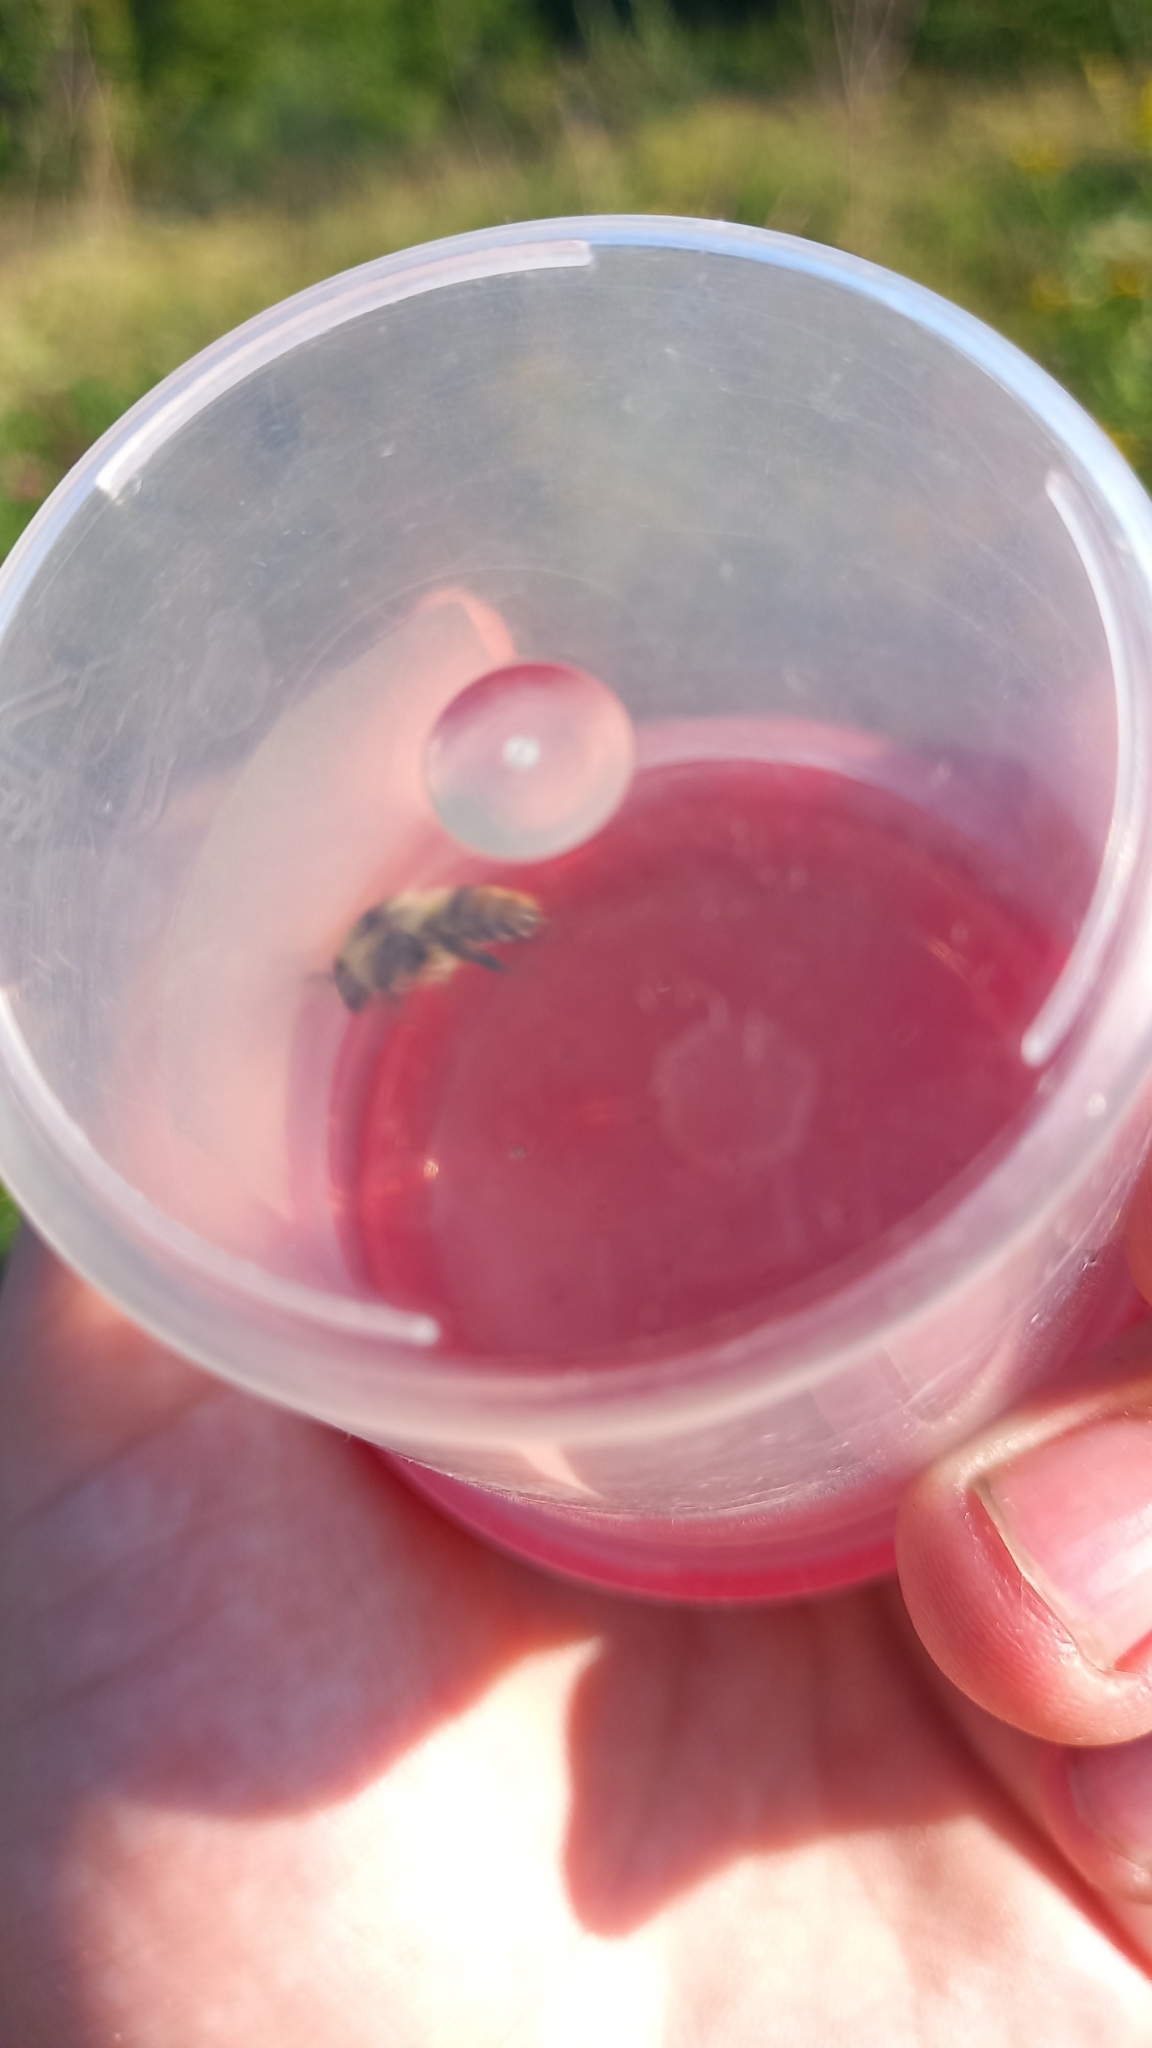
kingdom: Animalia
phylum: Arthropoda
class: Insecta
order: Hymenoptera
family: Apidae
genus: Bombus
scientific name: Bombus sylvarum
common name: Shrill carder bee
